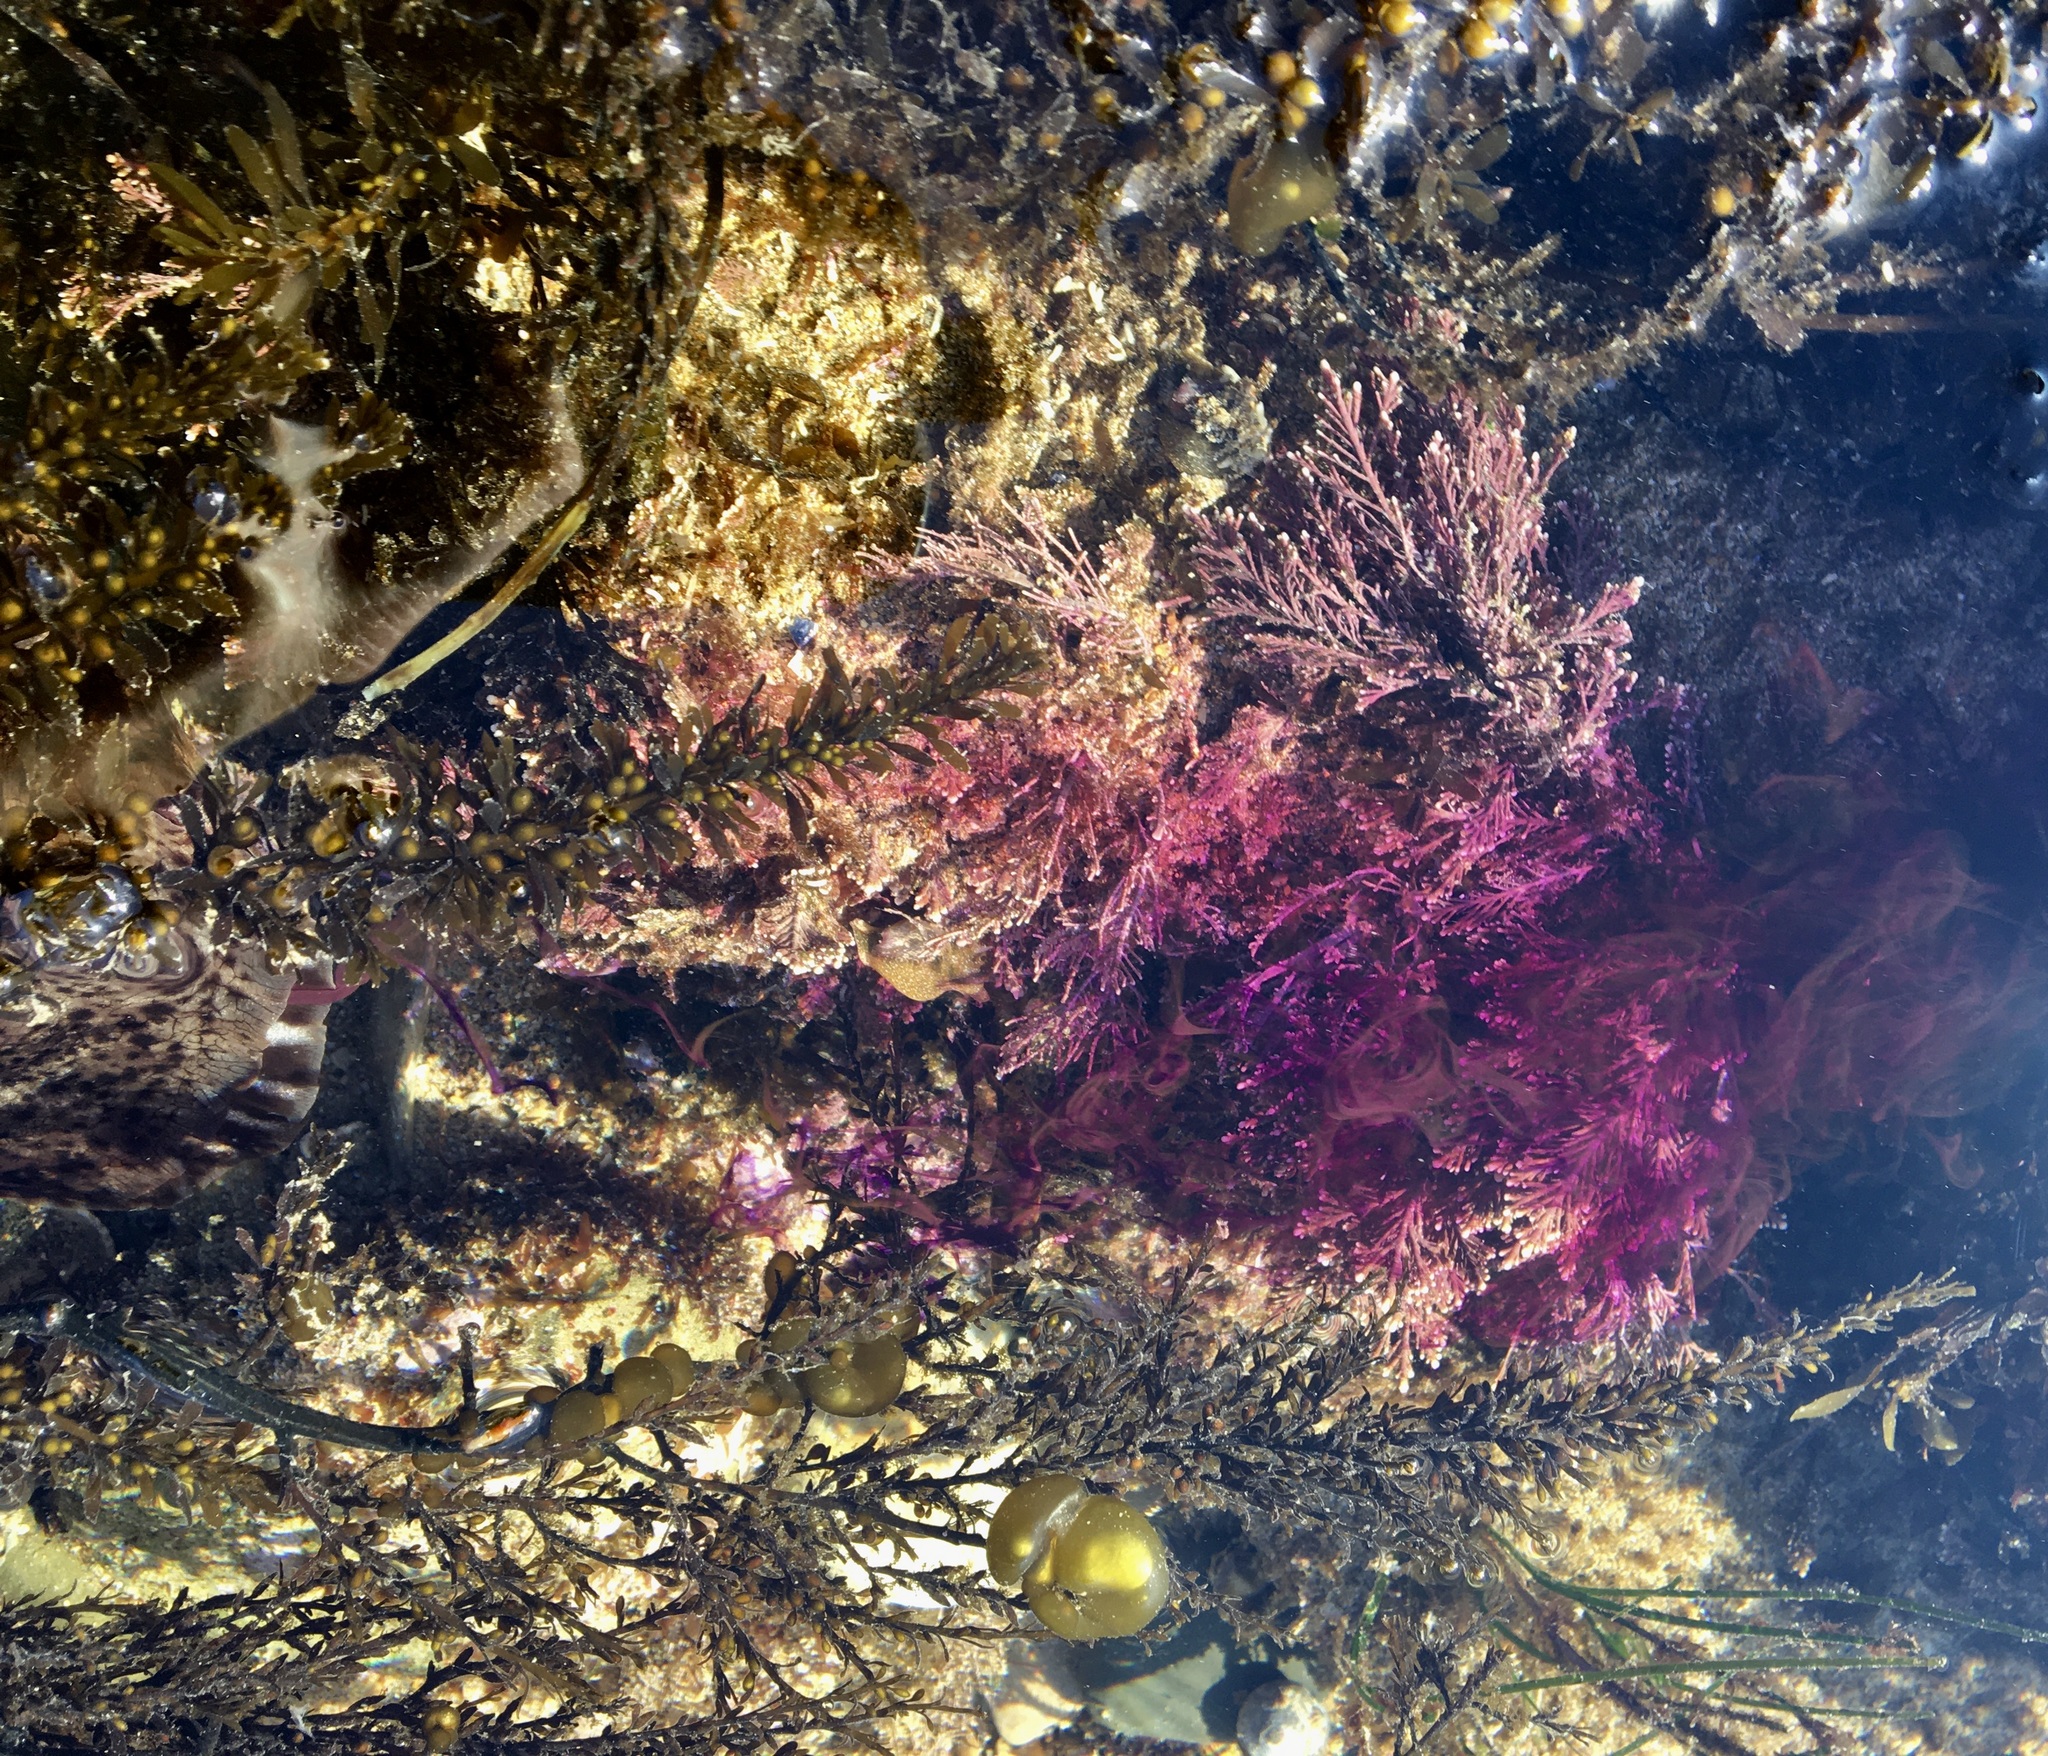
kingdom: Animalia
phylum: Mollusca
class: Gastropoda
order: Aplysiida
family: Aplysiidae
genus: Aplysia
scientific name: Aplysia californica
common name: California seahare
